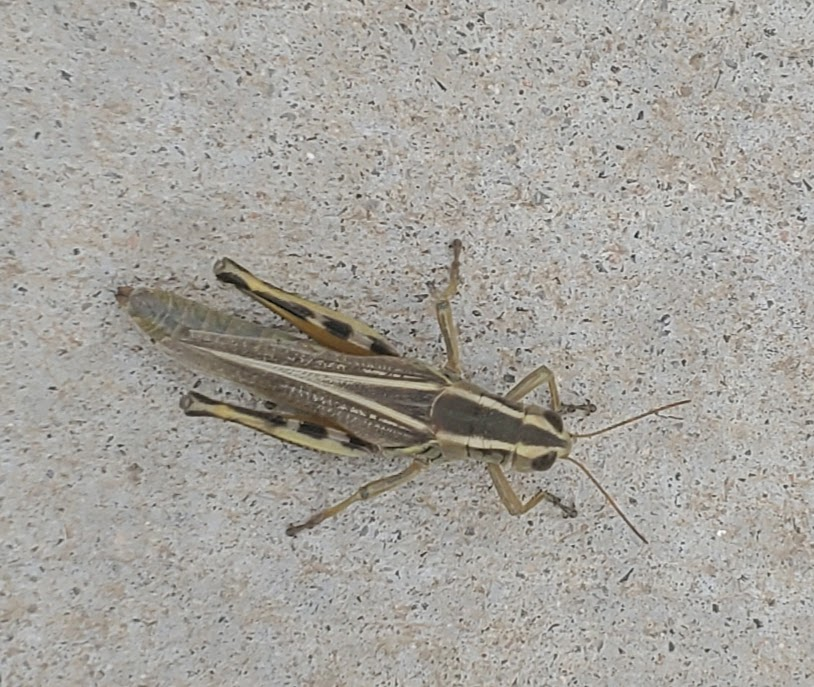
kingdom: Animalia
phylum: Arthropoda
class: Insecta
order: Orthoptera
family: Acrididae
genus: Melanoplus
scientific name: Melanoplus bivittatus
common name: Two-striped grasshopper
